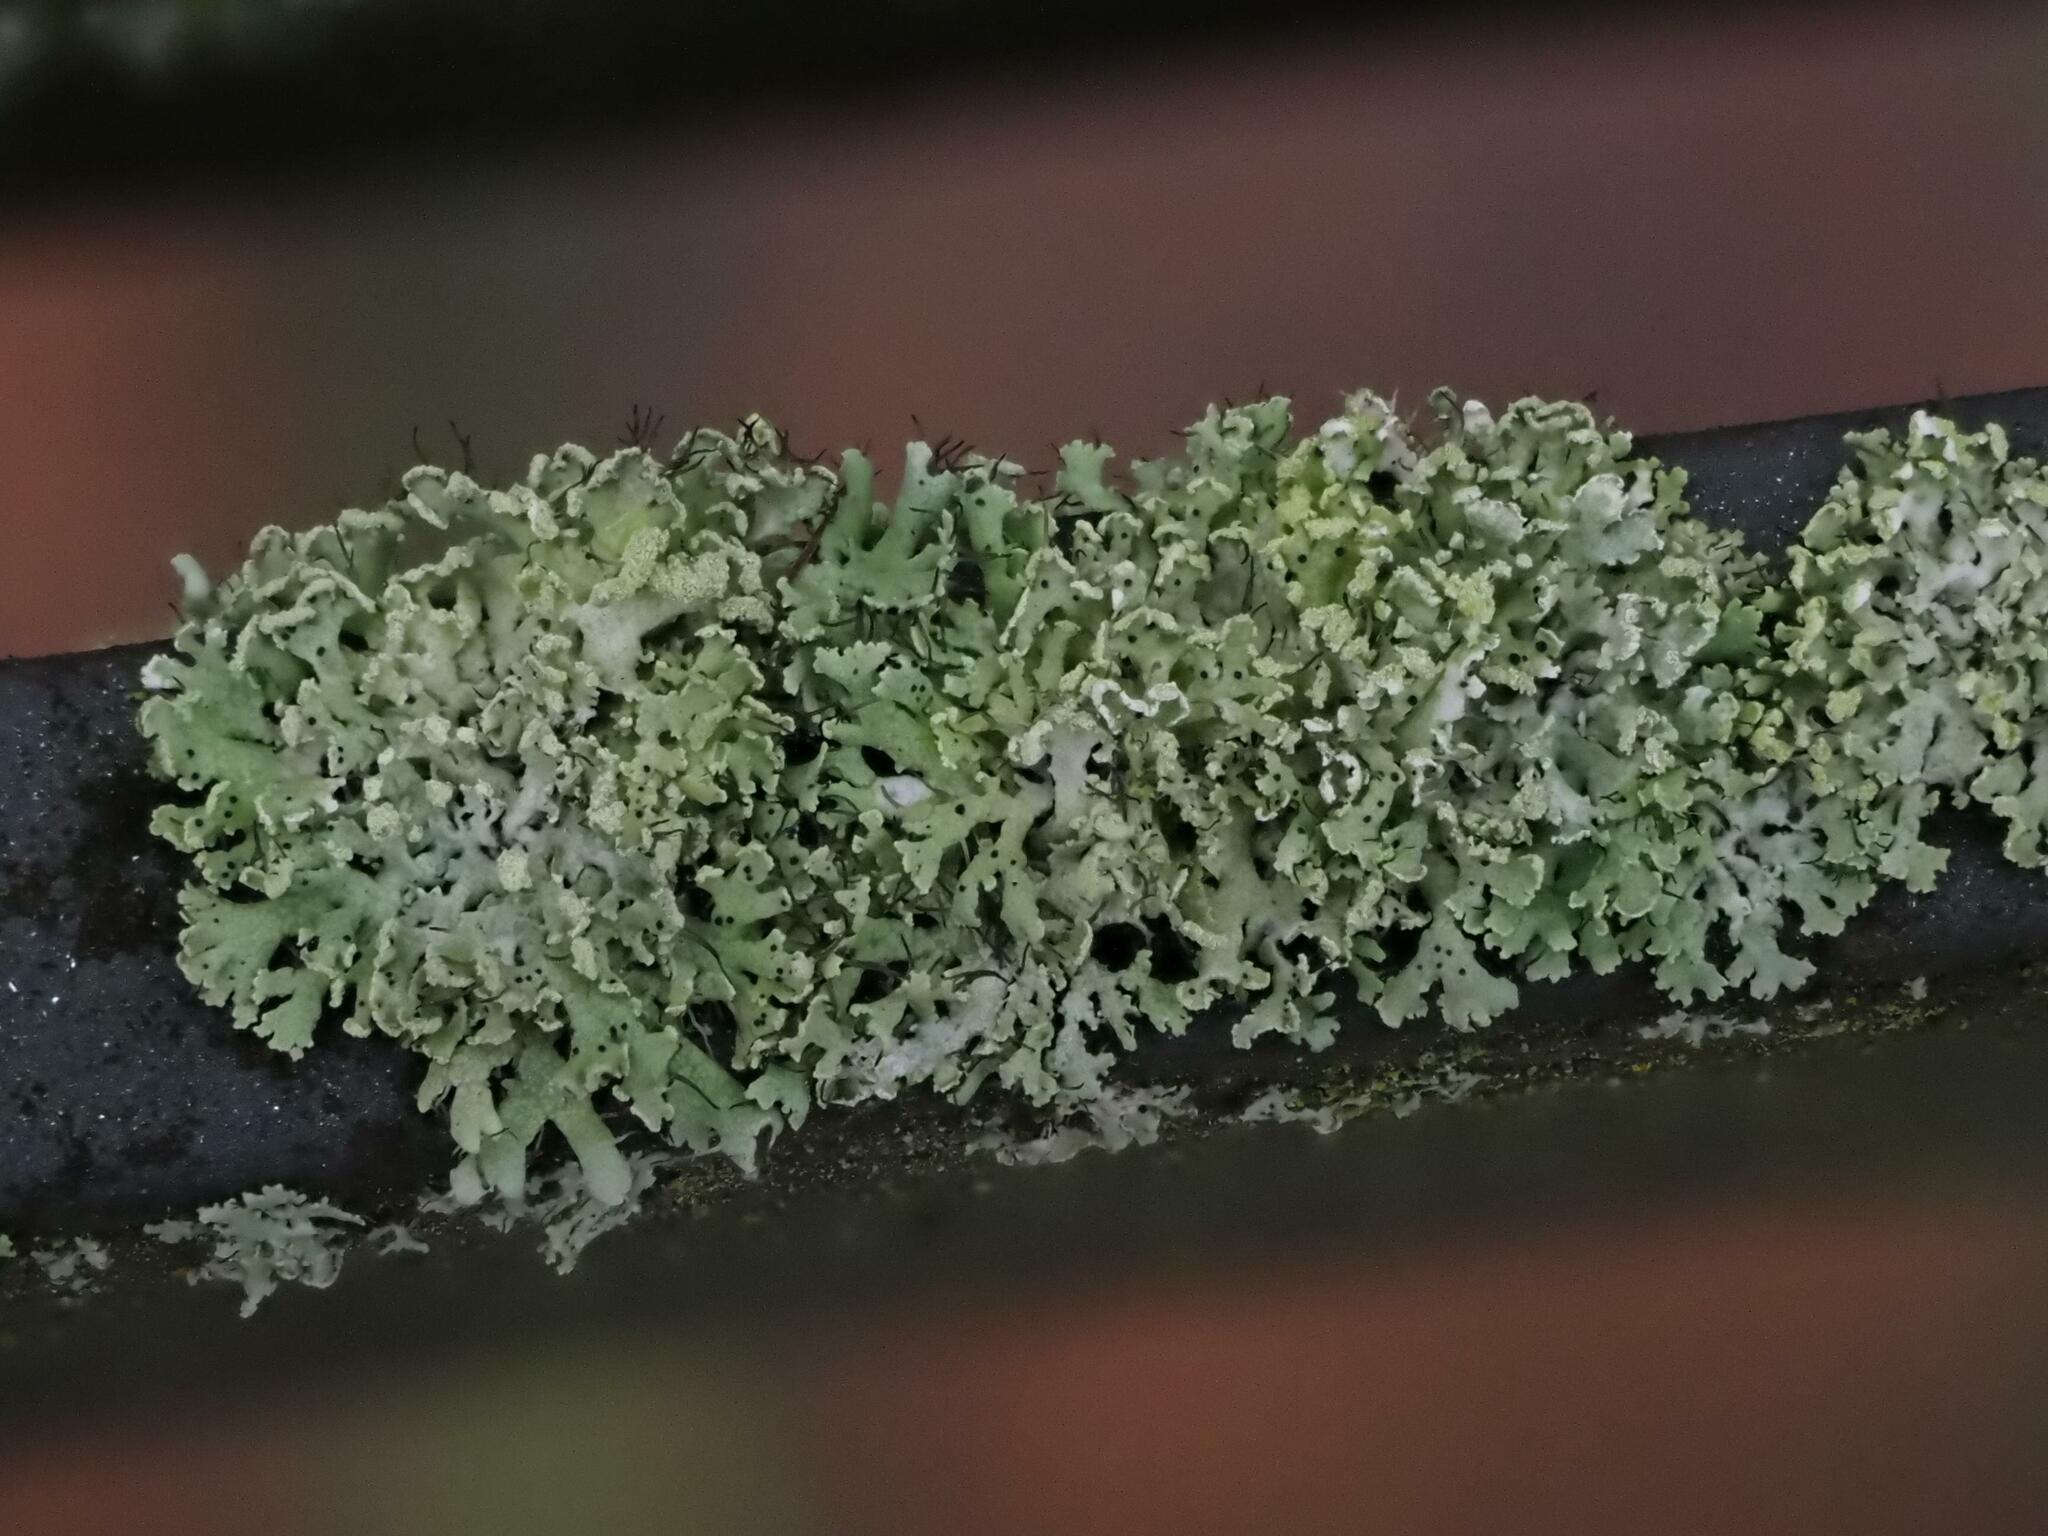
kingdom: Fungi
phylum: Ascomycota
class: Lecanoromycetes
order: Caliciales
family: Physciaceae
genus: Physcia
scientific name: Physcia tenella
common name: Fringed rosette lichen
